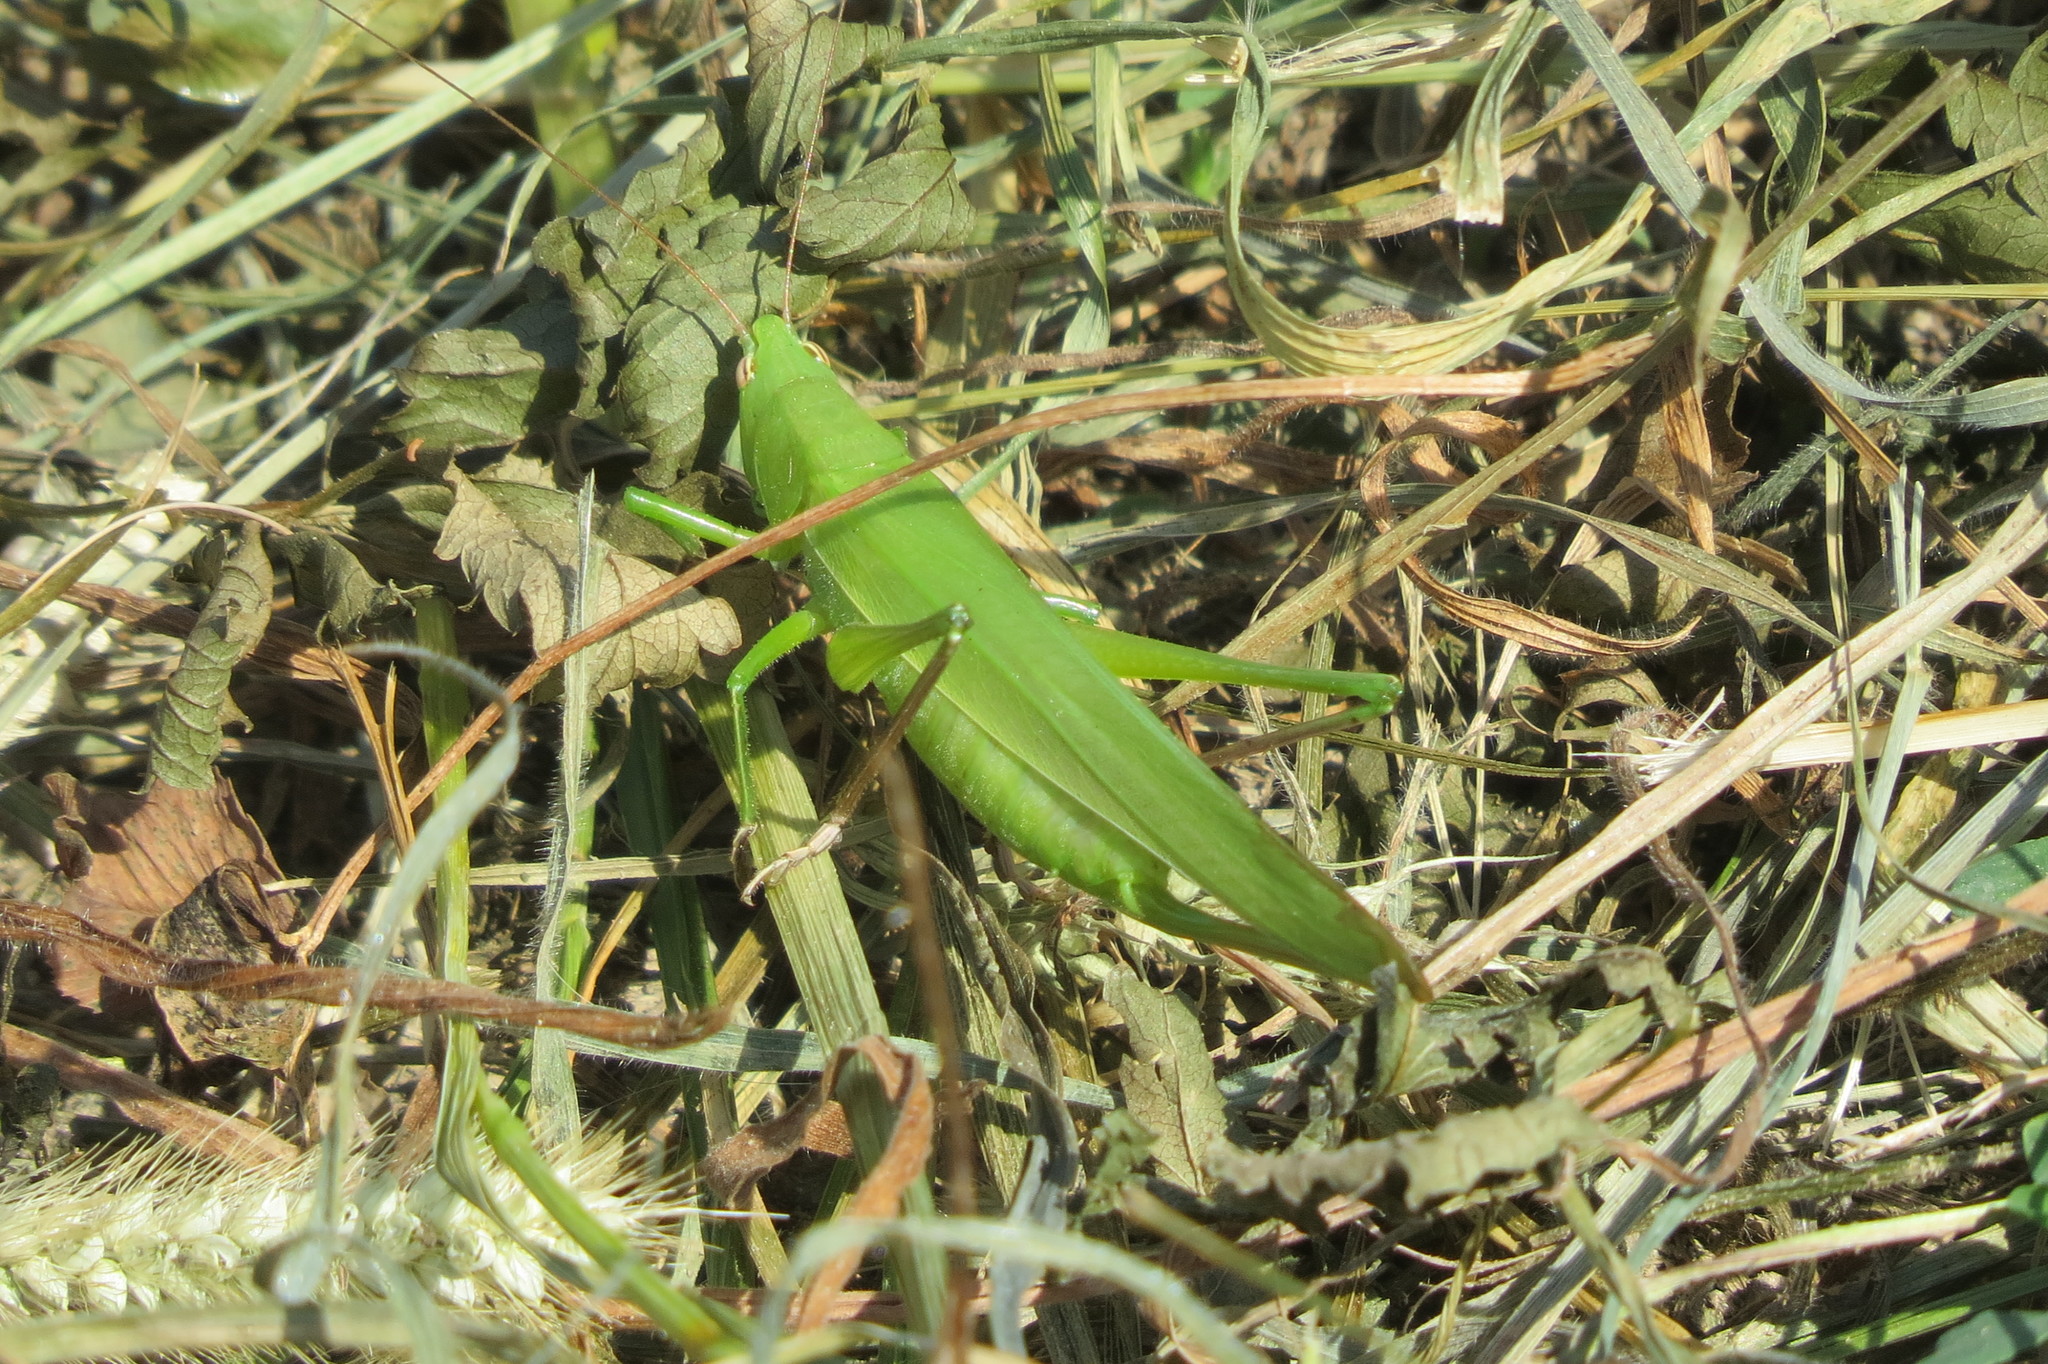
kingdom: Animalia
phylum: Arthropoda
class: Insecta
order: Orthoptera
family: Tettigoniidae
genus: Ruspolia
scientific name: Ruspolia nitidula
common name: Large conehead
